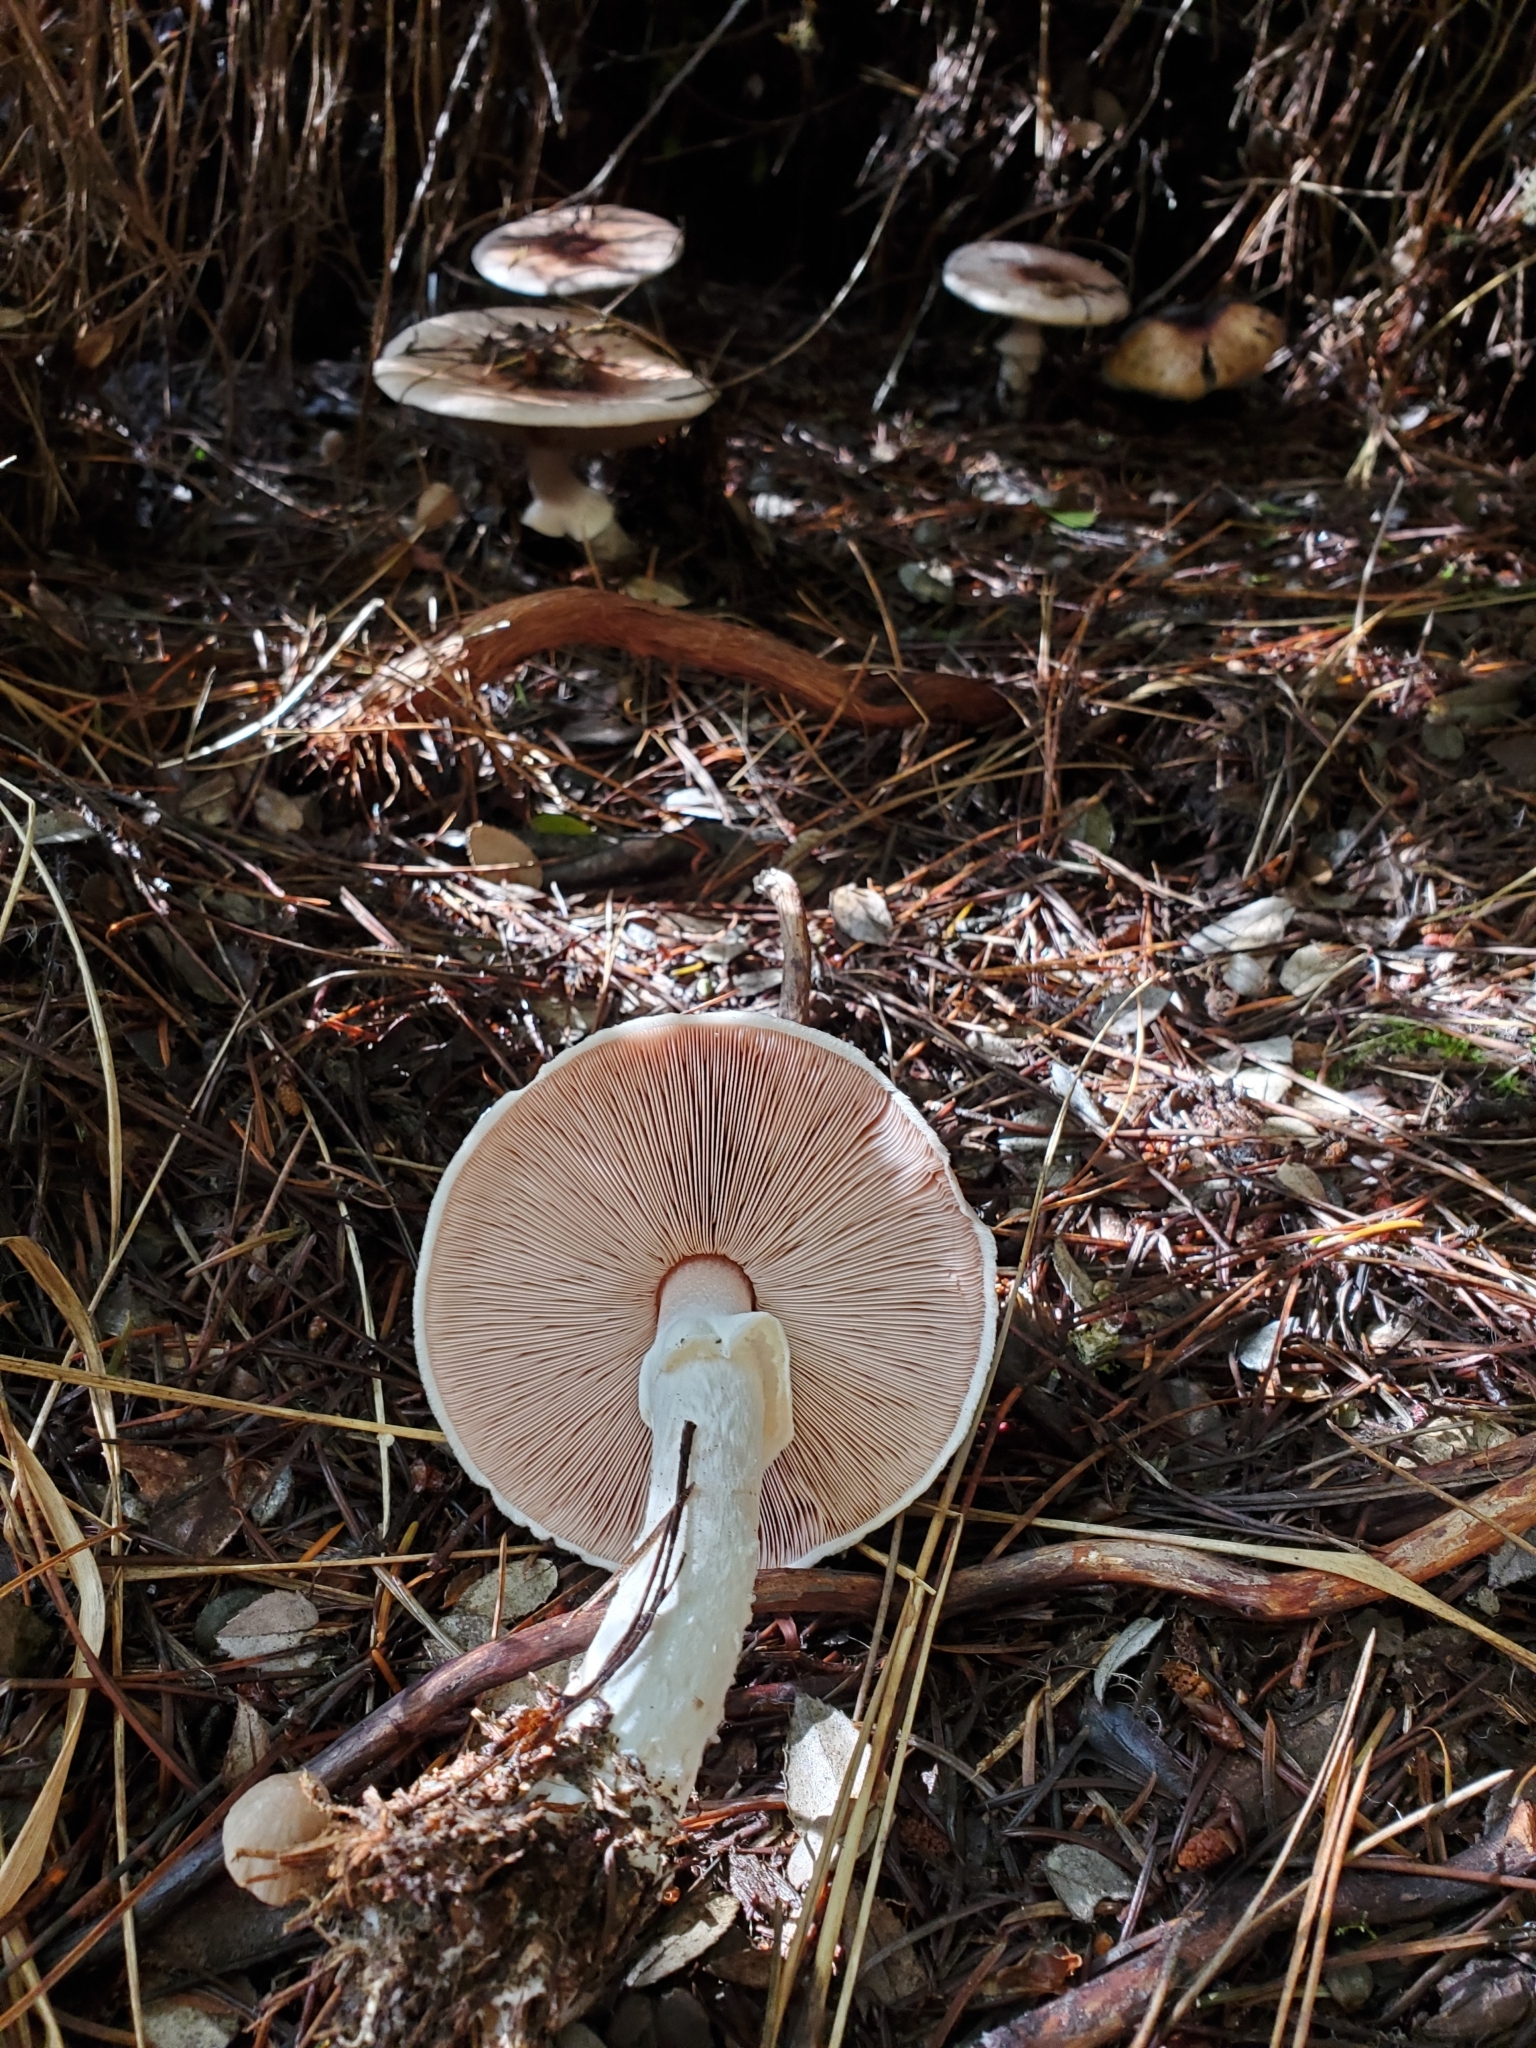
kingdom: Fungi
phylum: Basidiomycota
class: Agaricomycetes
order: Agaricales
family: Agaricaceae
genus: Agaricus
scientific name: Agaricus subrutilescens
